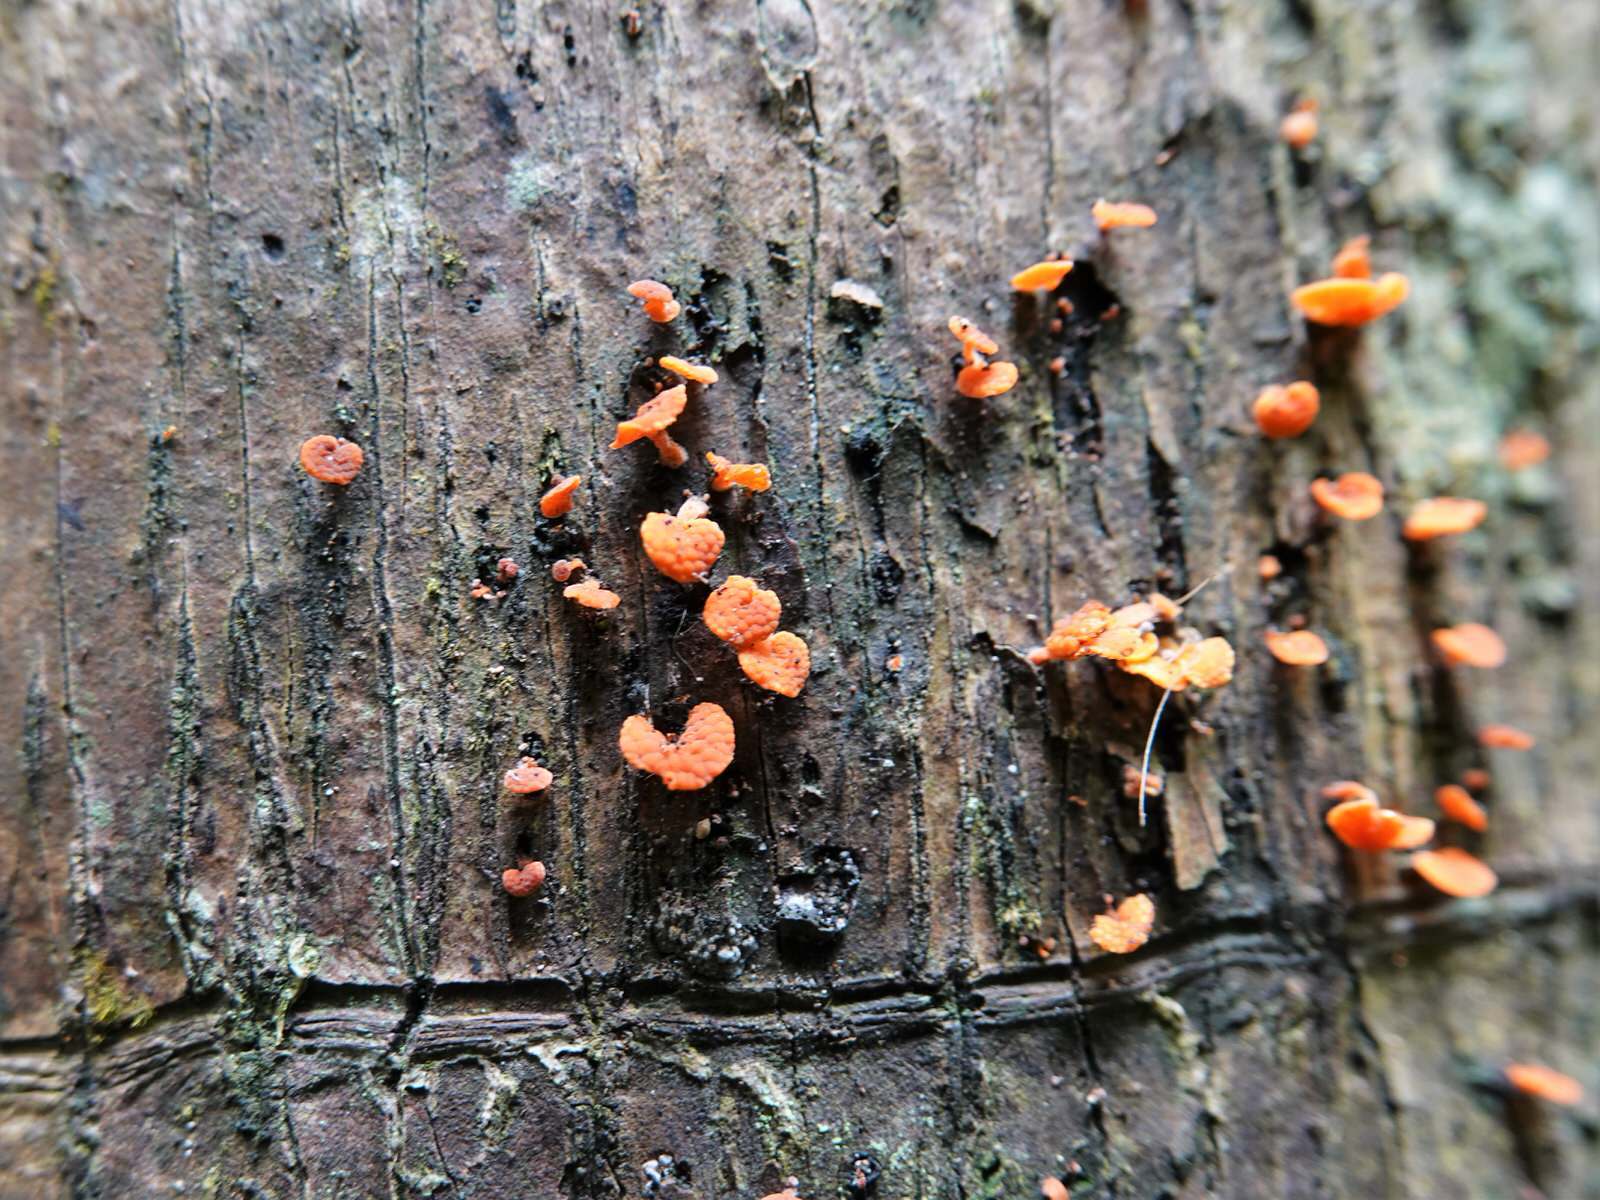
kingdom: Fungi
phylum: Basidiomycota
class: Agaricomycetes
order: Agaricales
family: Mycenaceae
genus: Favolaschia
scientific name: Favolaschia claudopus
